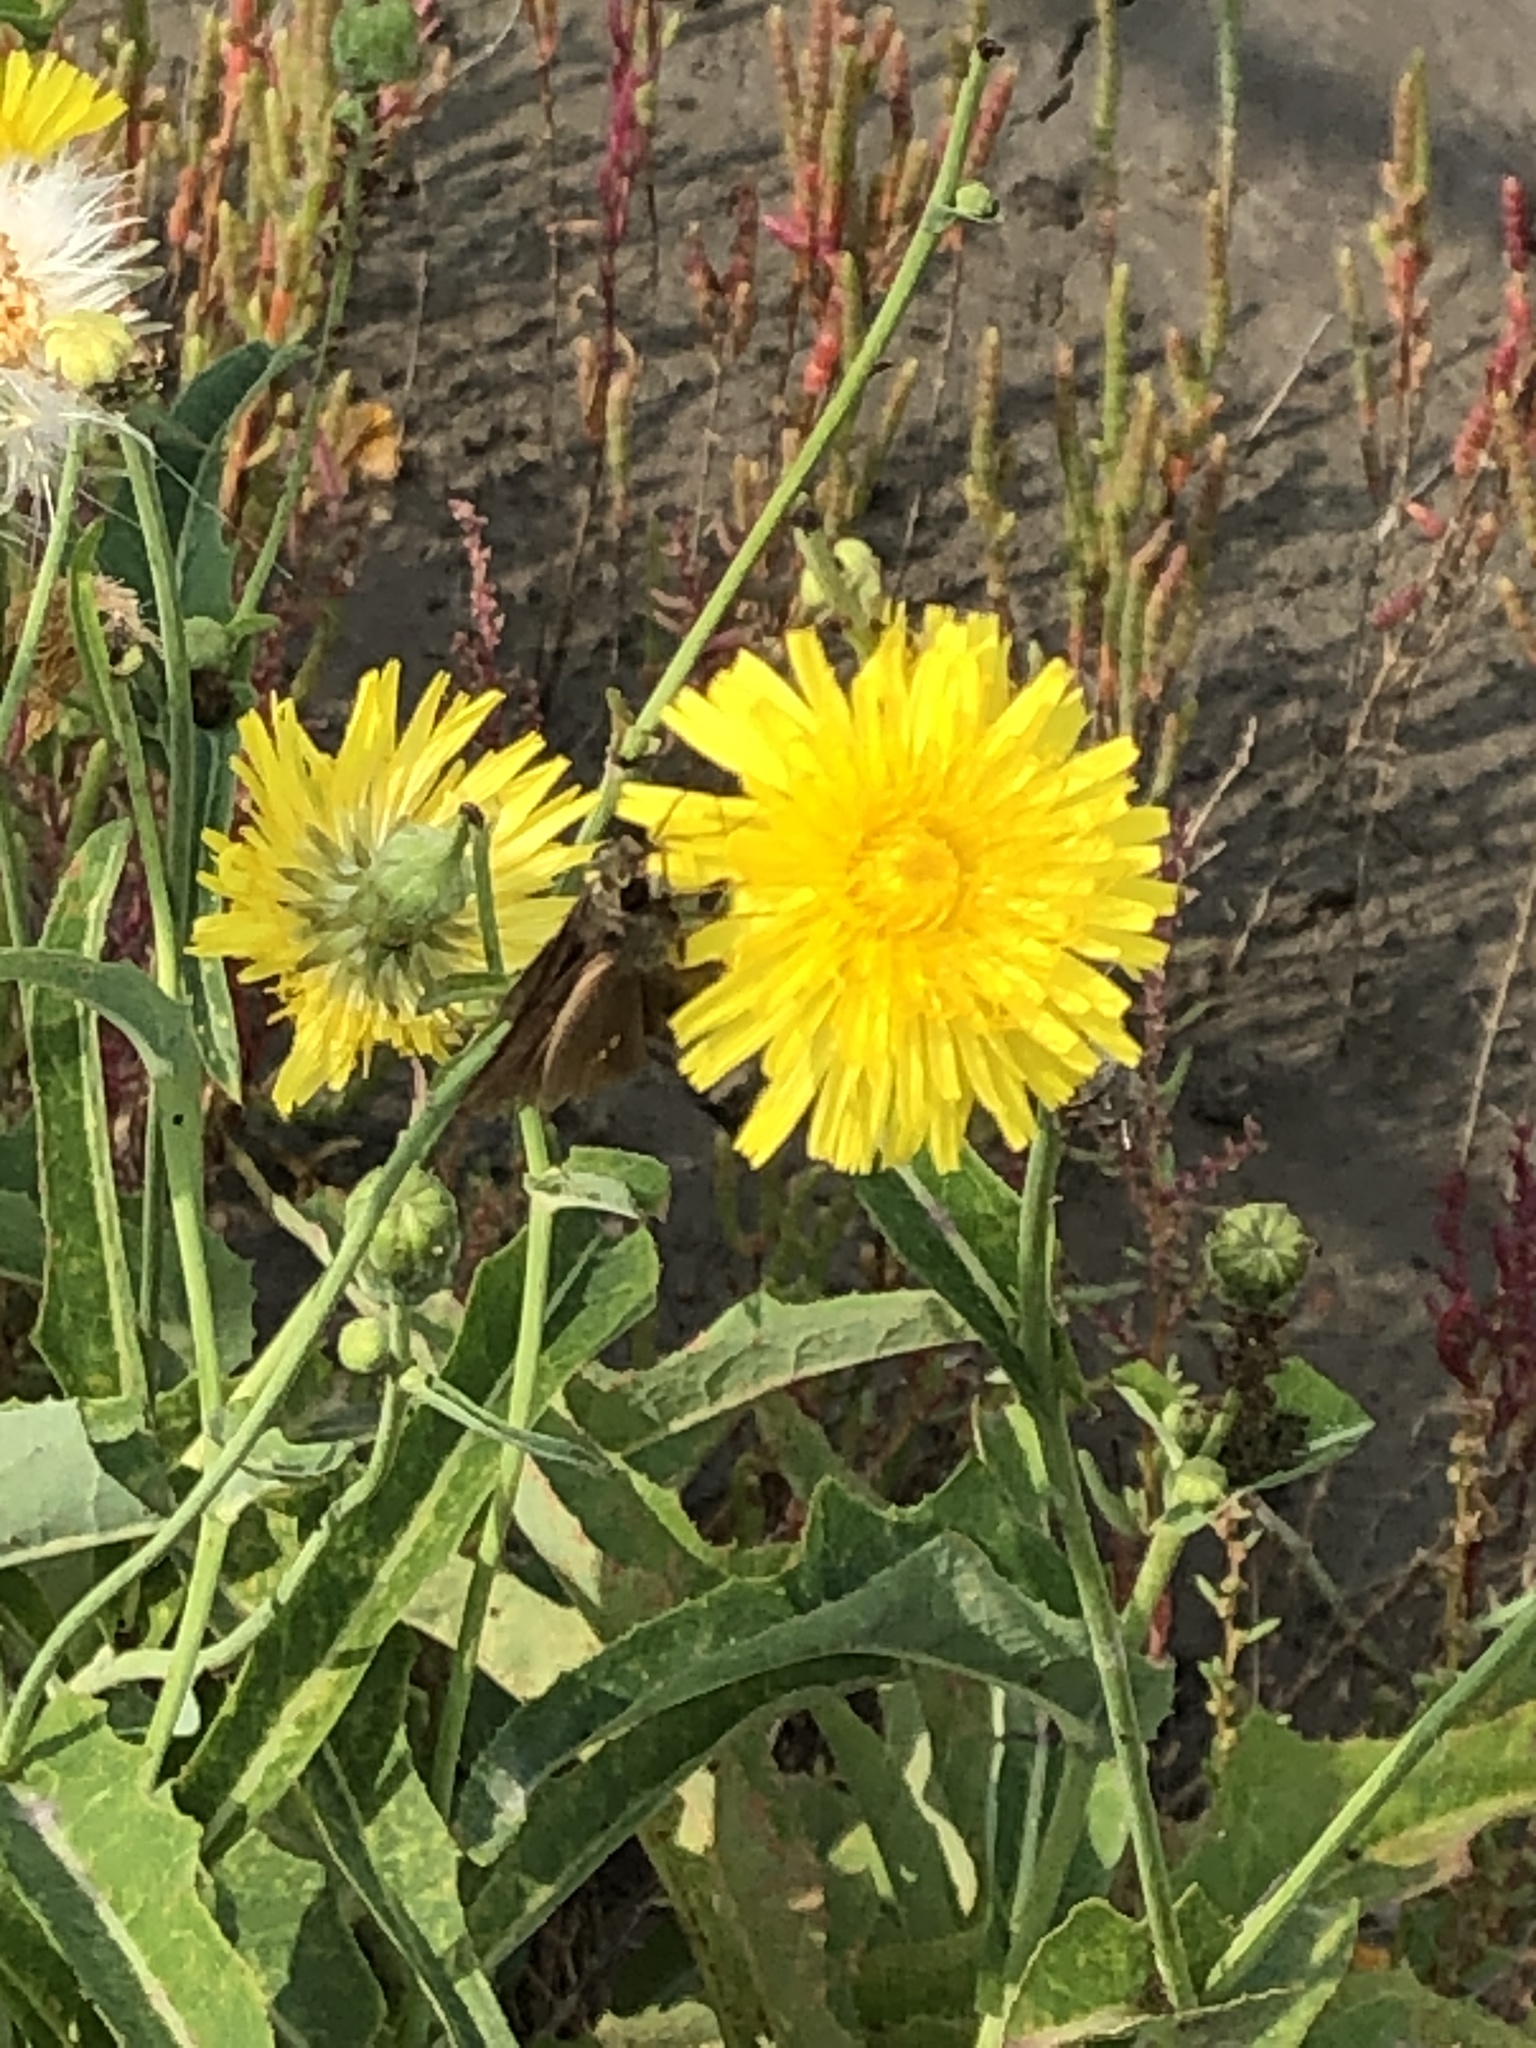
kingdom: Animalia
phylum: Arthropoda
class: Insecta
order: Lepidoptera
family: Hesperiidae
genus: Parnara
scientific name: Parnara guttatus
